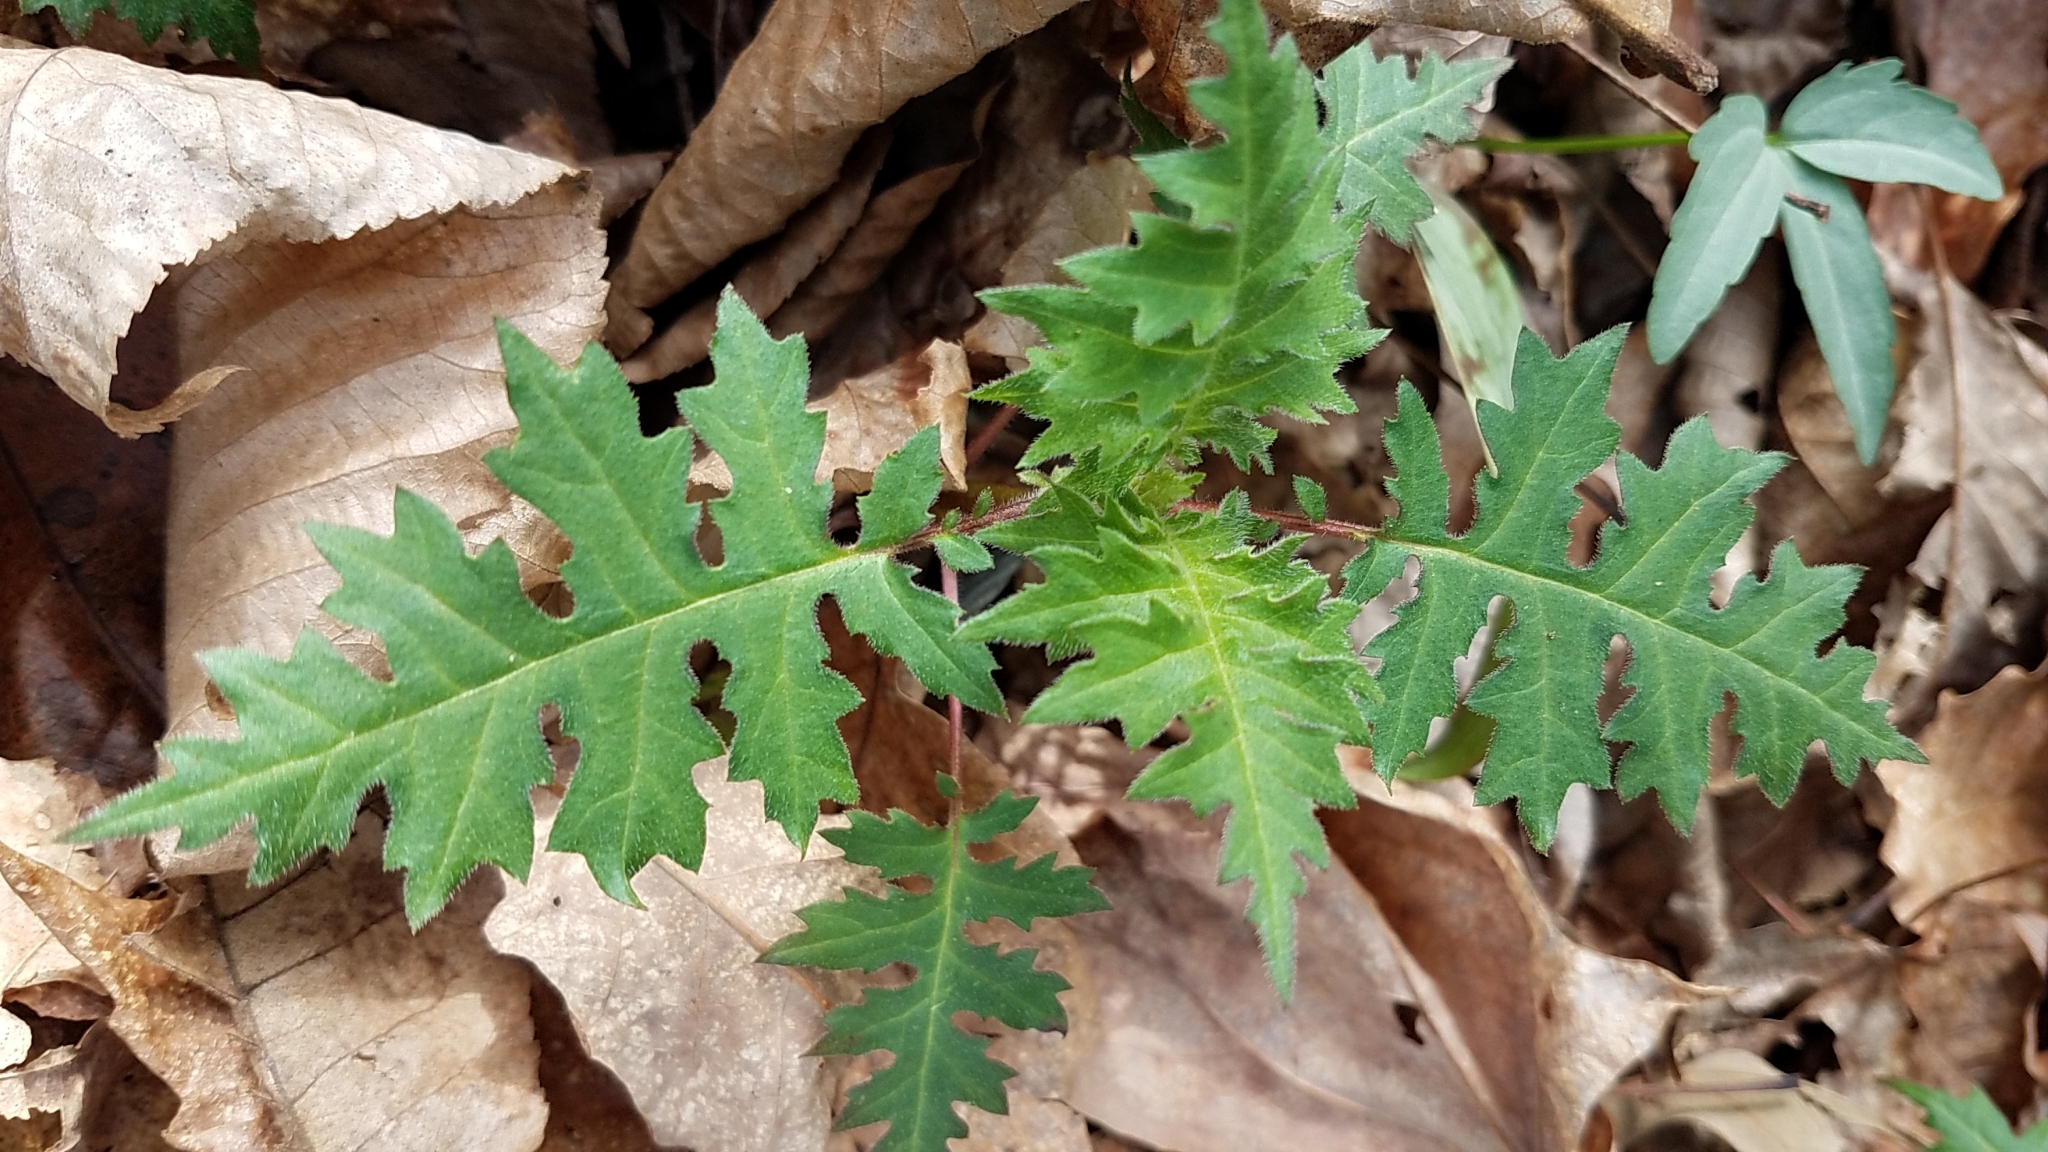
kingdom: Plantae
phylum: Tracheophyta
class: Magnoliopsida
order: Asterales
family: Asteraceae
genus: Polymnia
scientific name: Polymnia canadensis
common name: Pale-flowered leafcup
